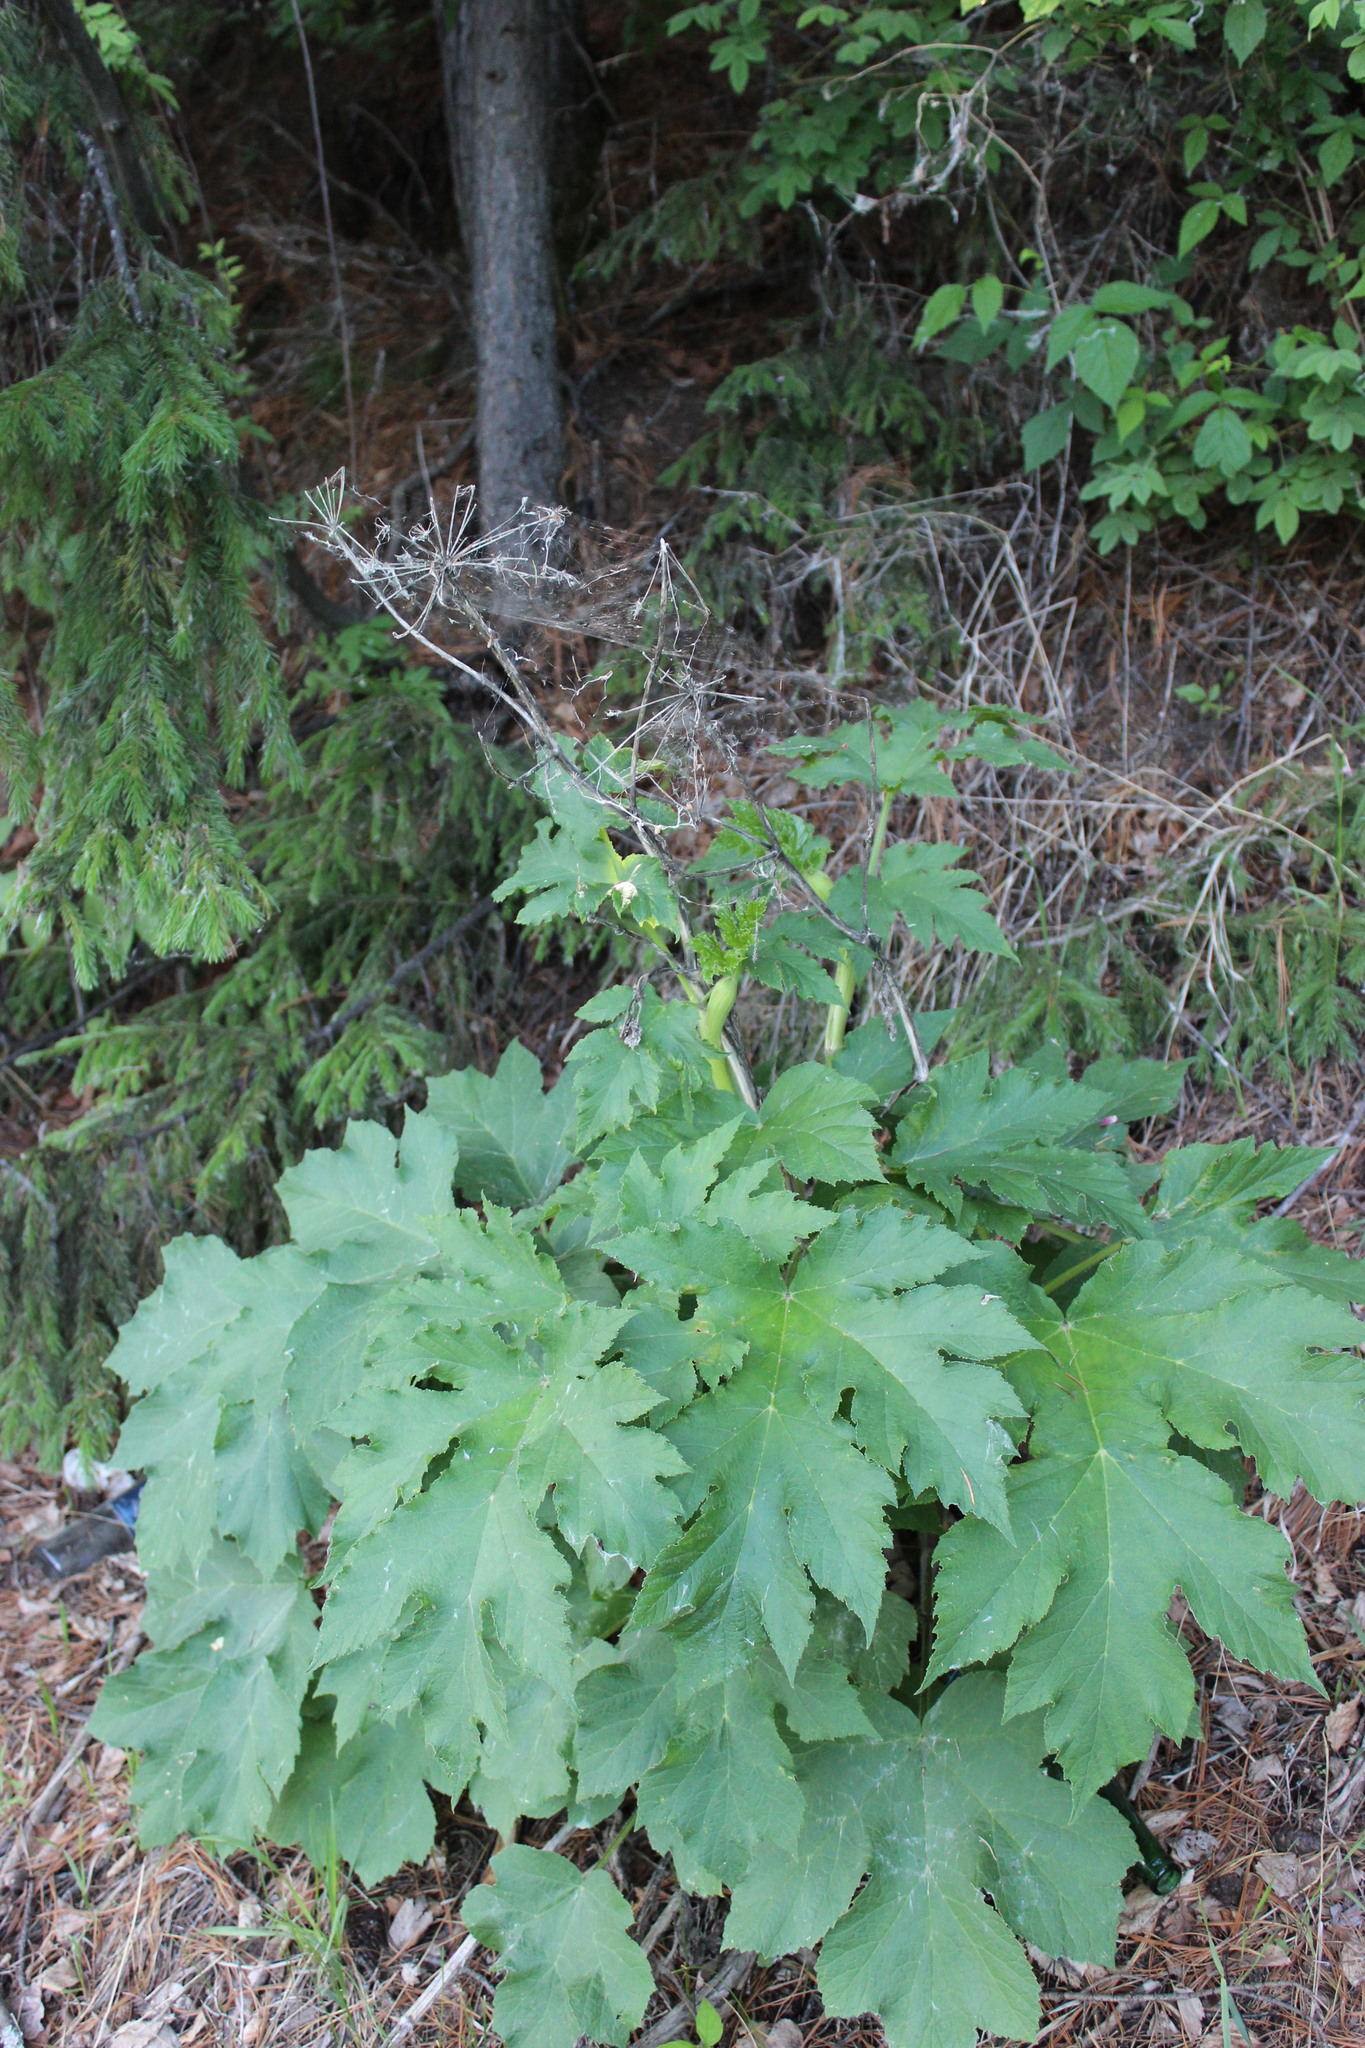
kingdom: Plantae
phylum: Tracheophyta
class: Magnoliopsida
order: Apiales
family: Apiaceae
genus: Heracleum
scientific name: Heracleum dissectum
